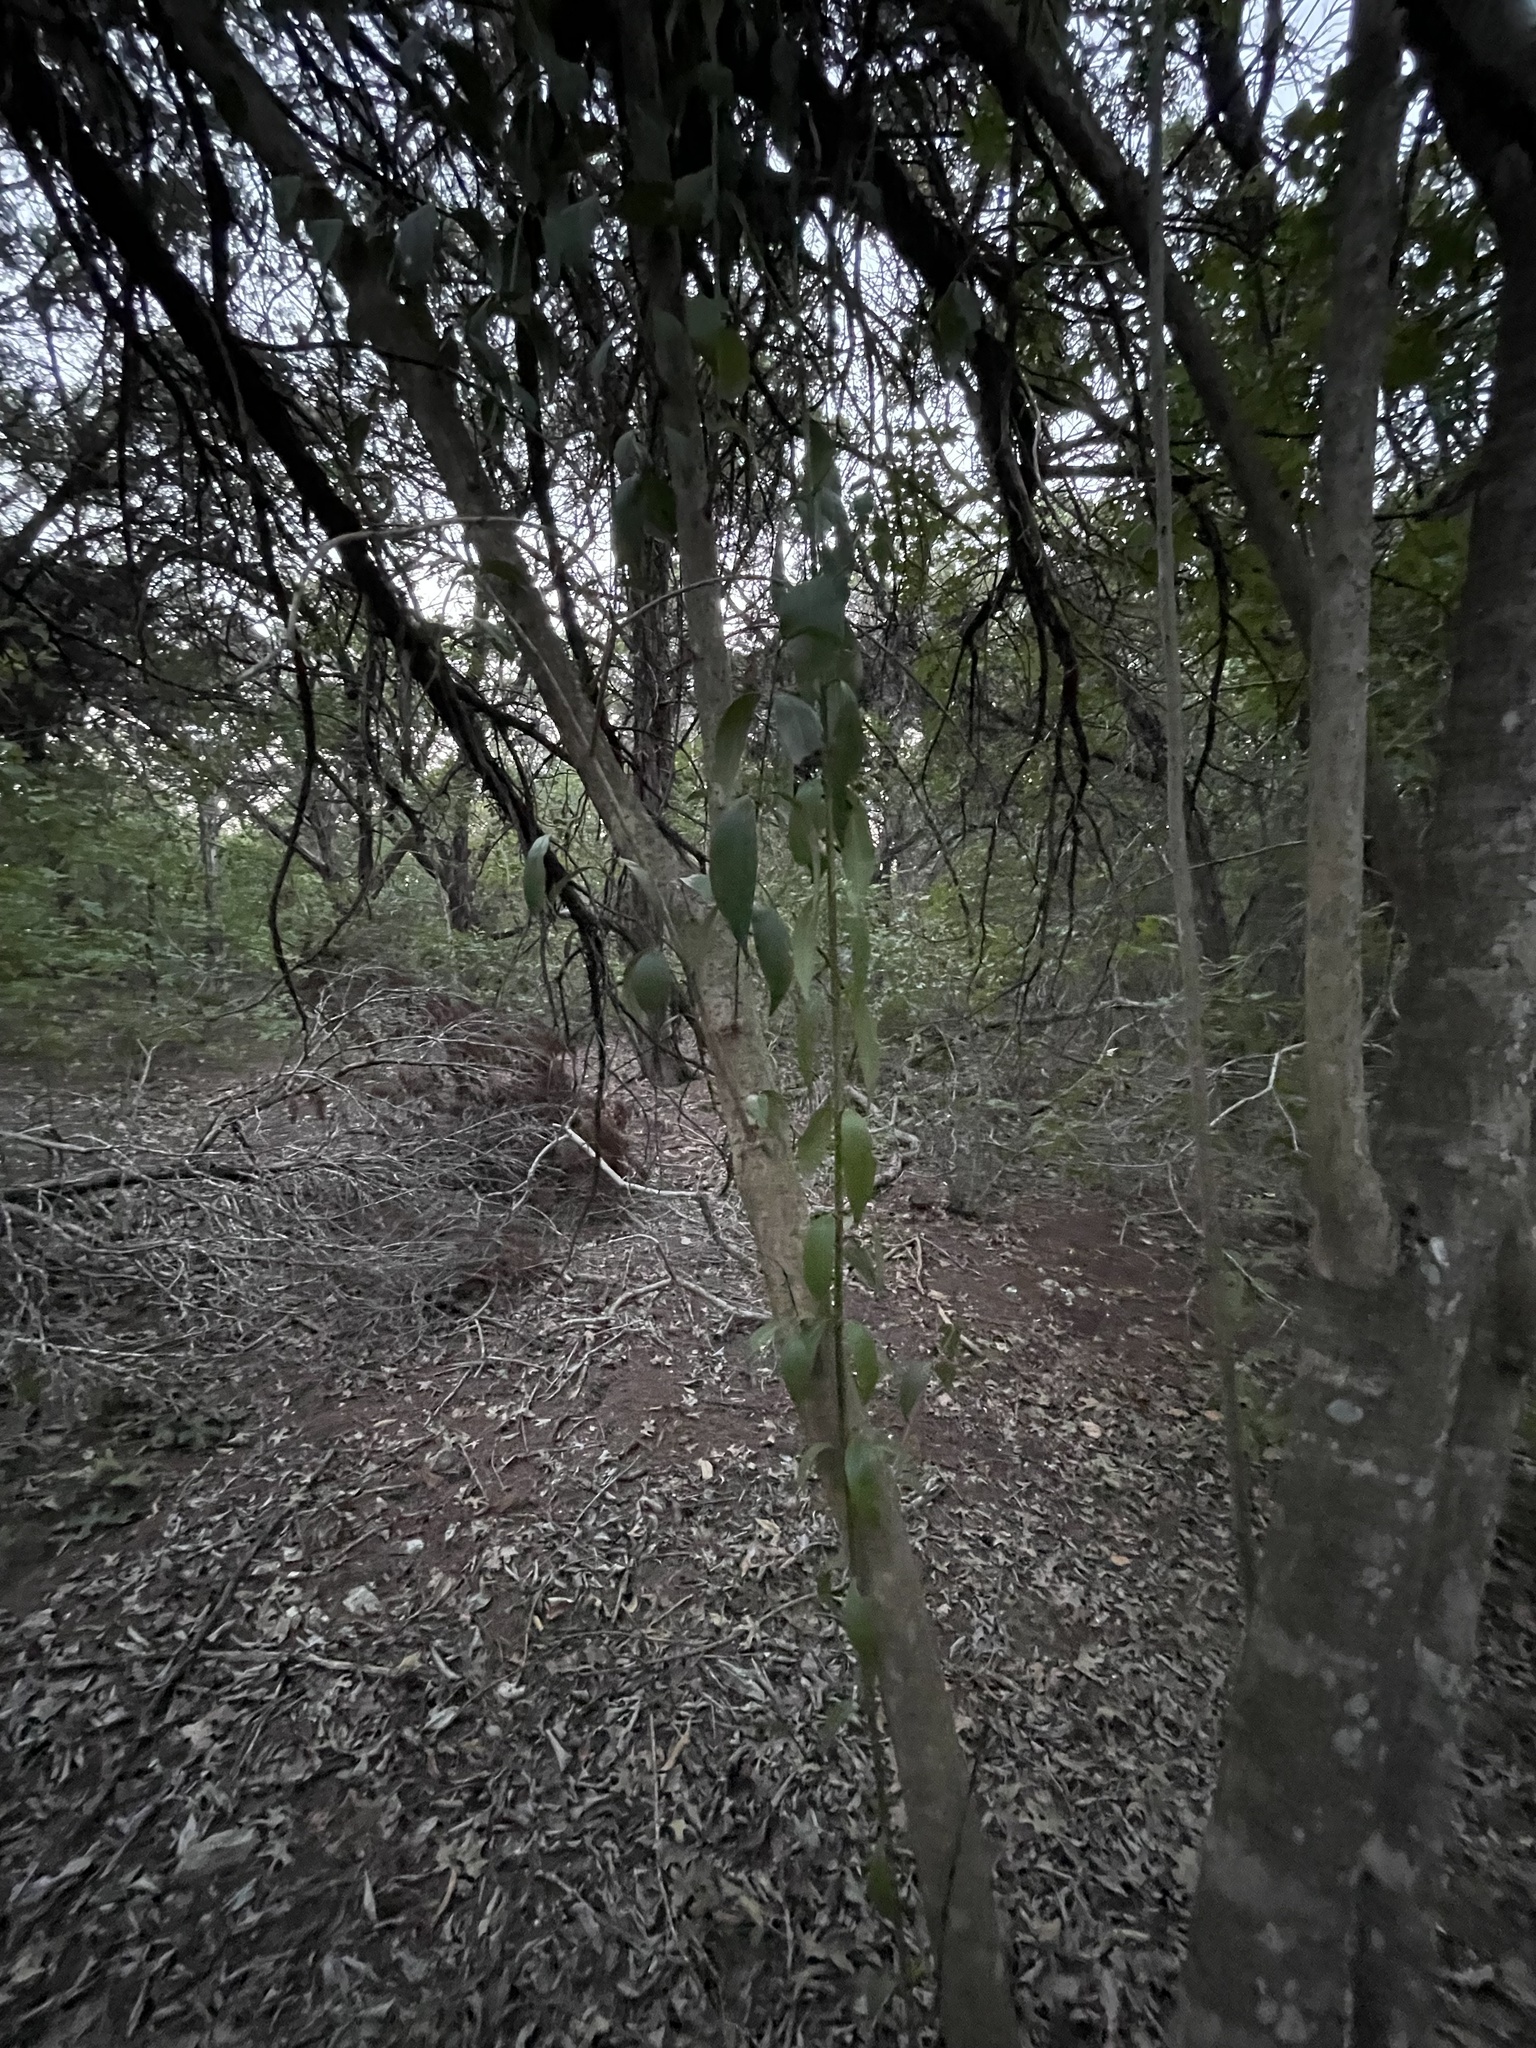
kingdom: Plantae
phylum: Tracheophyta
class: Magnoliopsida
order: Lamiales
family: Oleaceae
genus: Ligustrum
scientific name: Ligustrum lucidum
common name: Glossy privet
